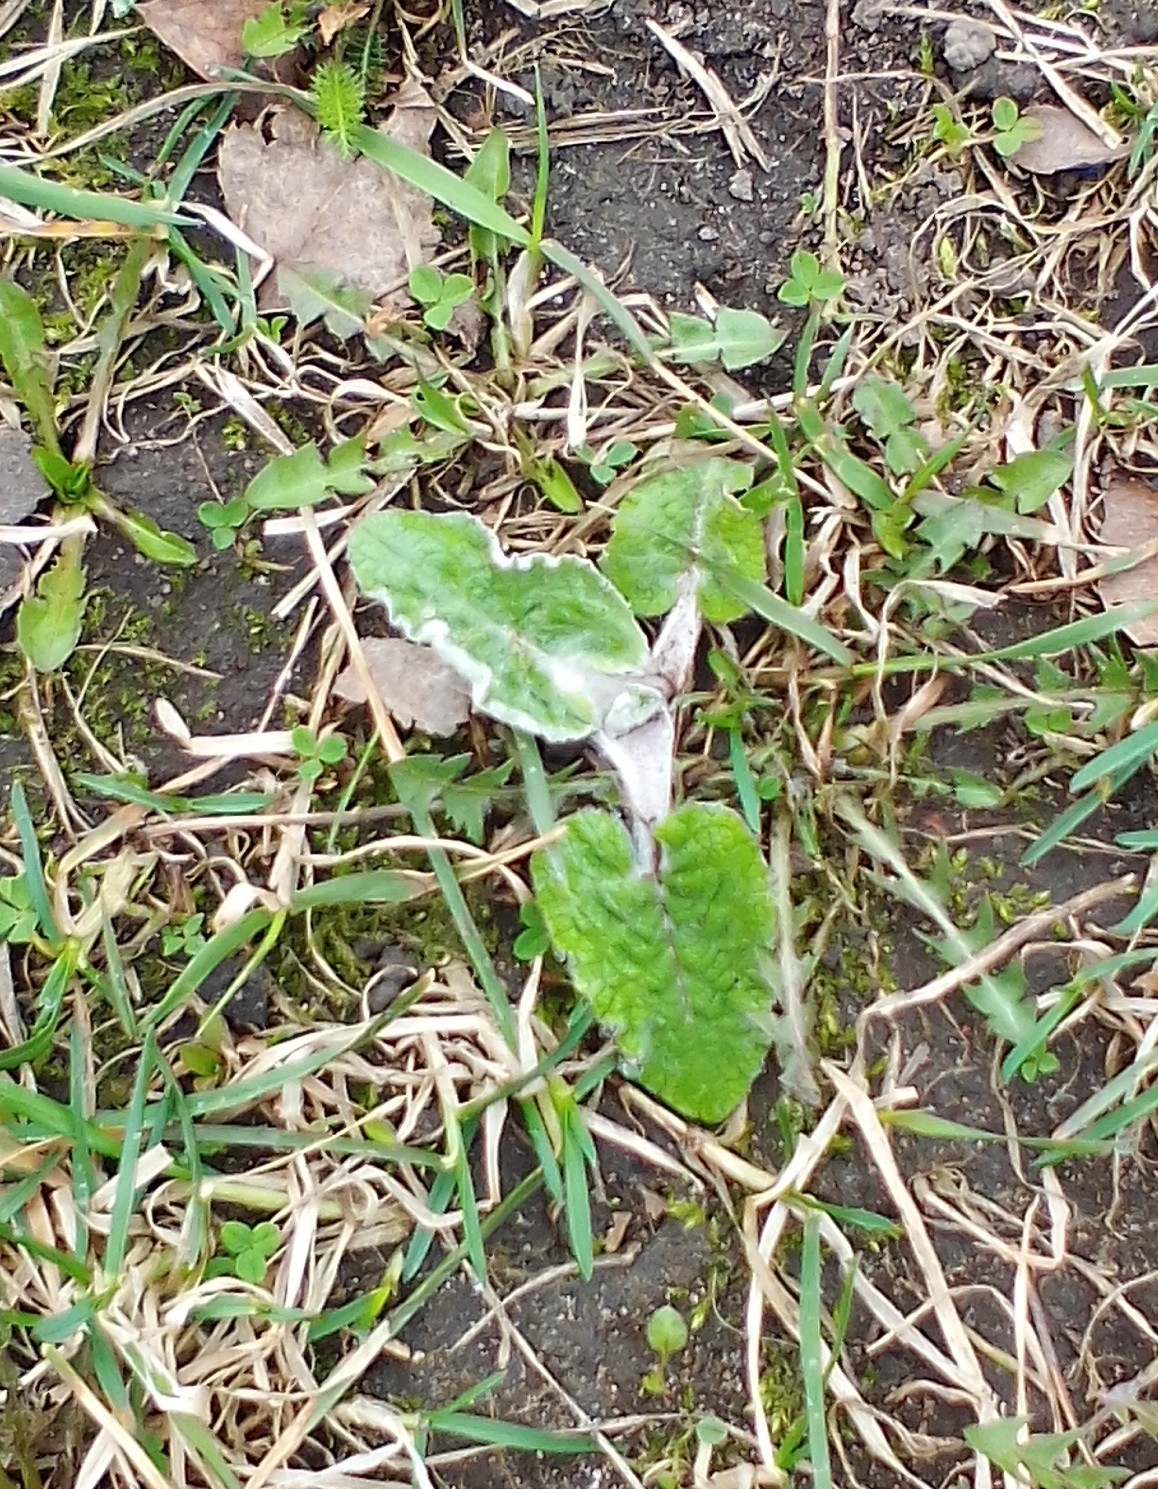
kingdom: Plantae
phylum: Tracheophyta
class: Magnoliopsida
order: Asterales
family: Asteraceae
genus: Arctium
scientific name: Arctium tomentosum
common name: Woolly burdock
